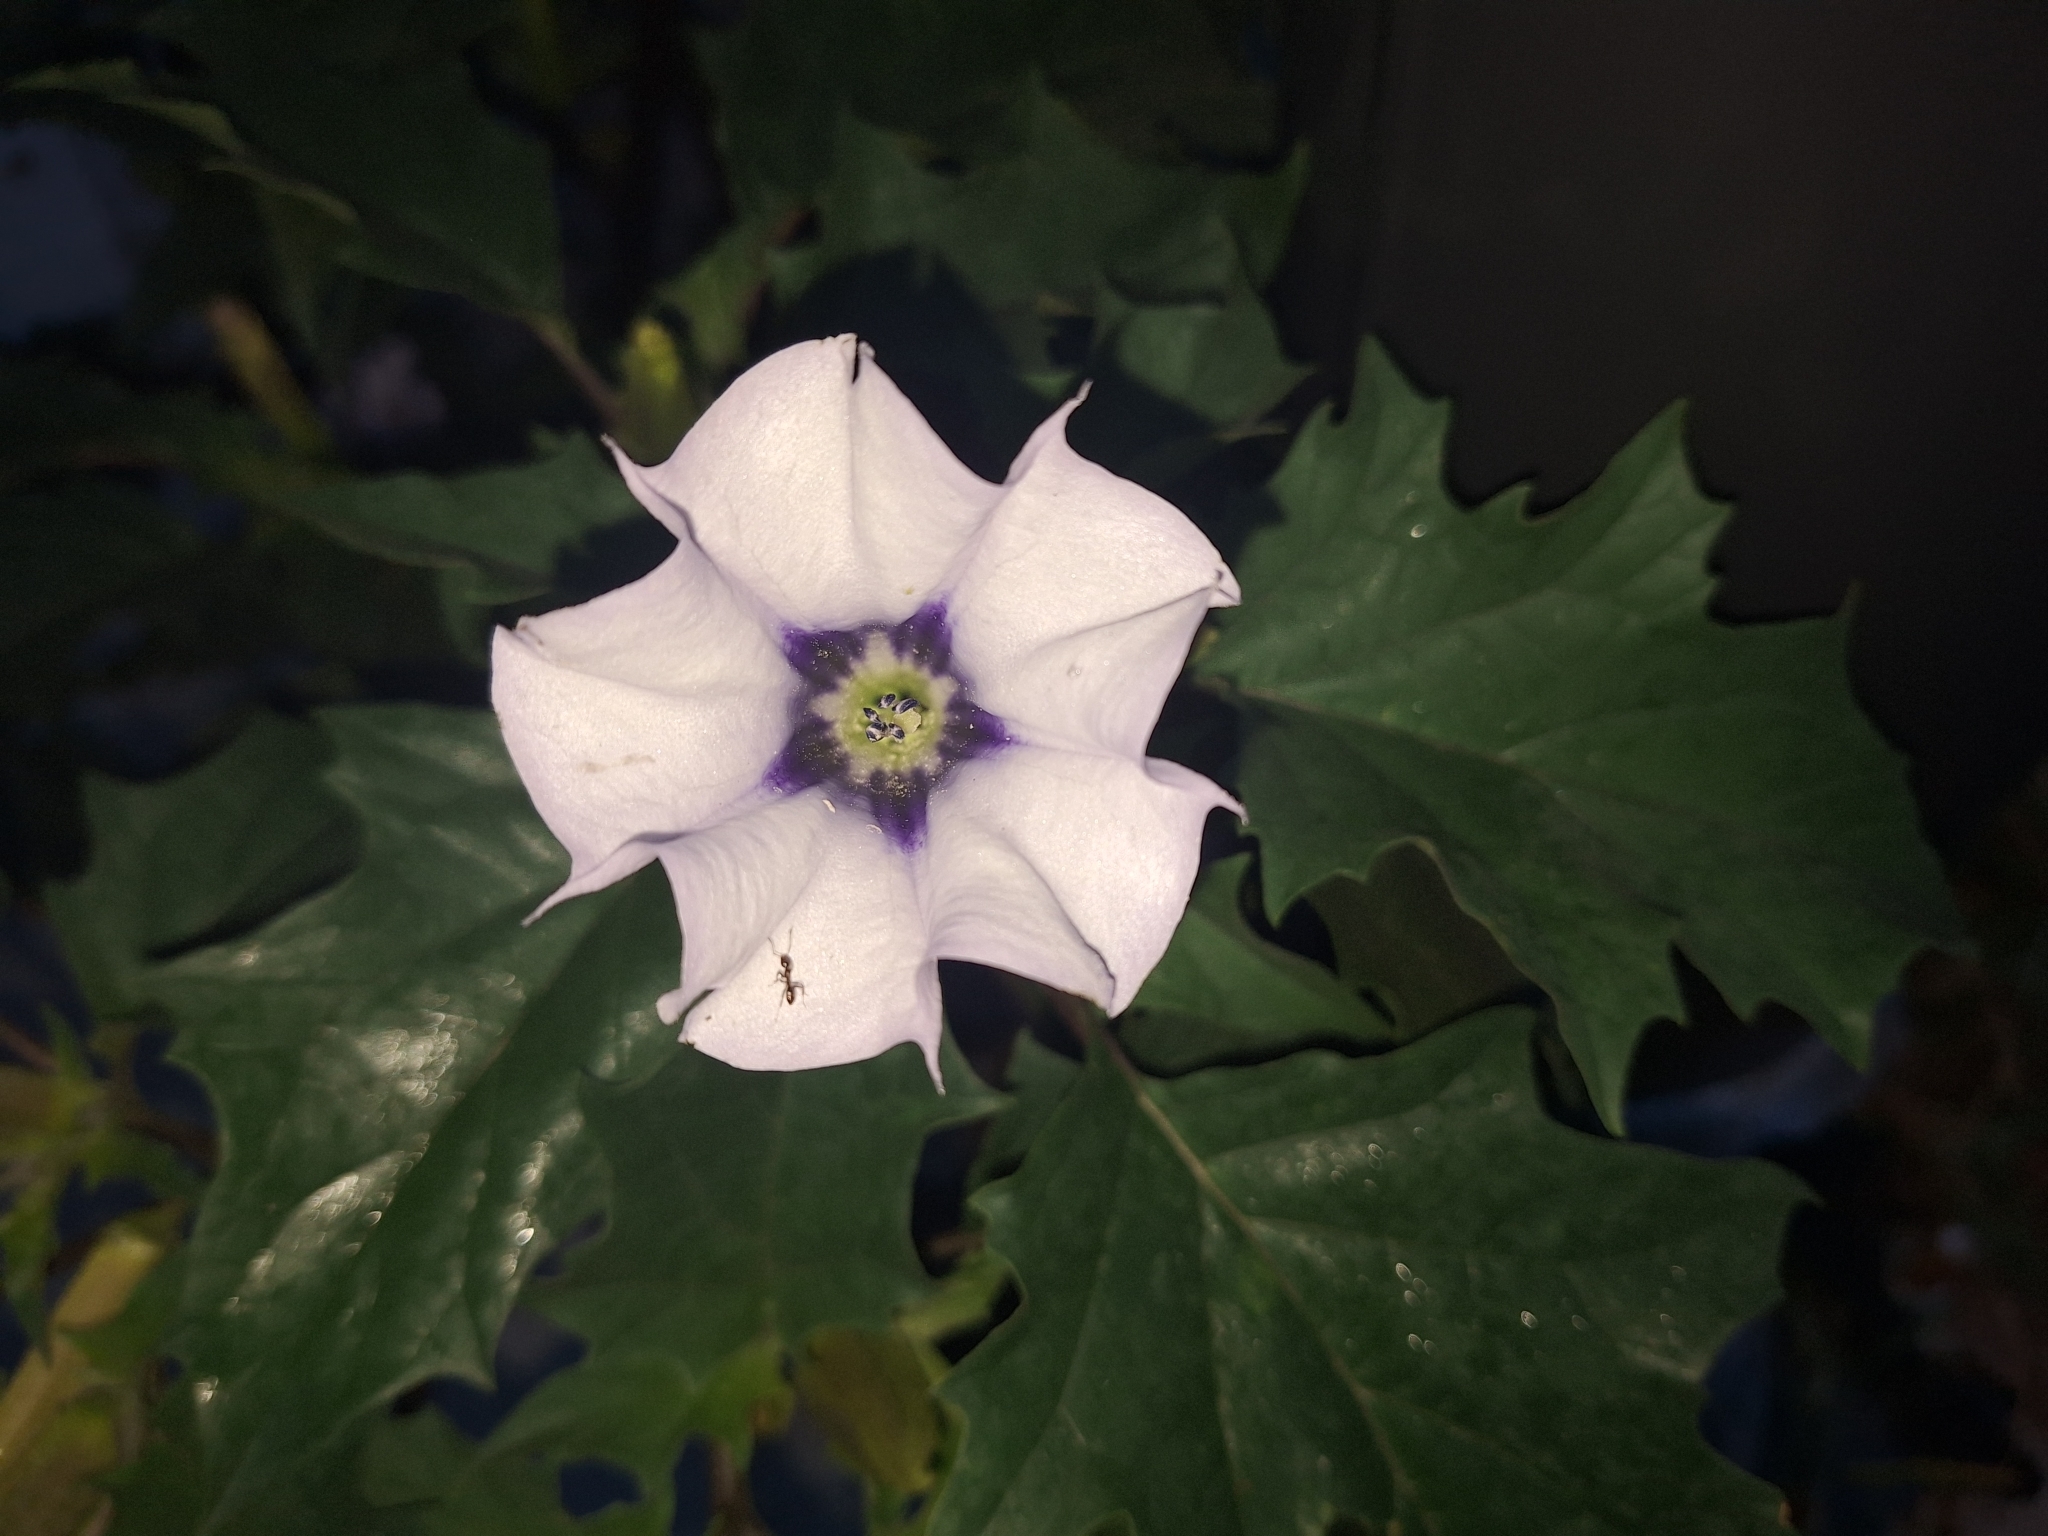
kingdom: Plantae
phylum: Tracheophyta
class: Magnoliopsida
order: Solanales
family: Solanaceae
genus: Datura
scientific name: Datura stramonium
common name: Thorn-apple
